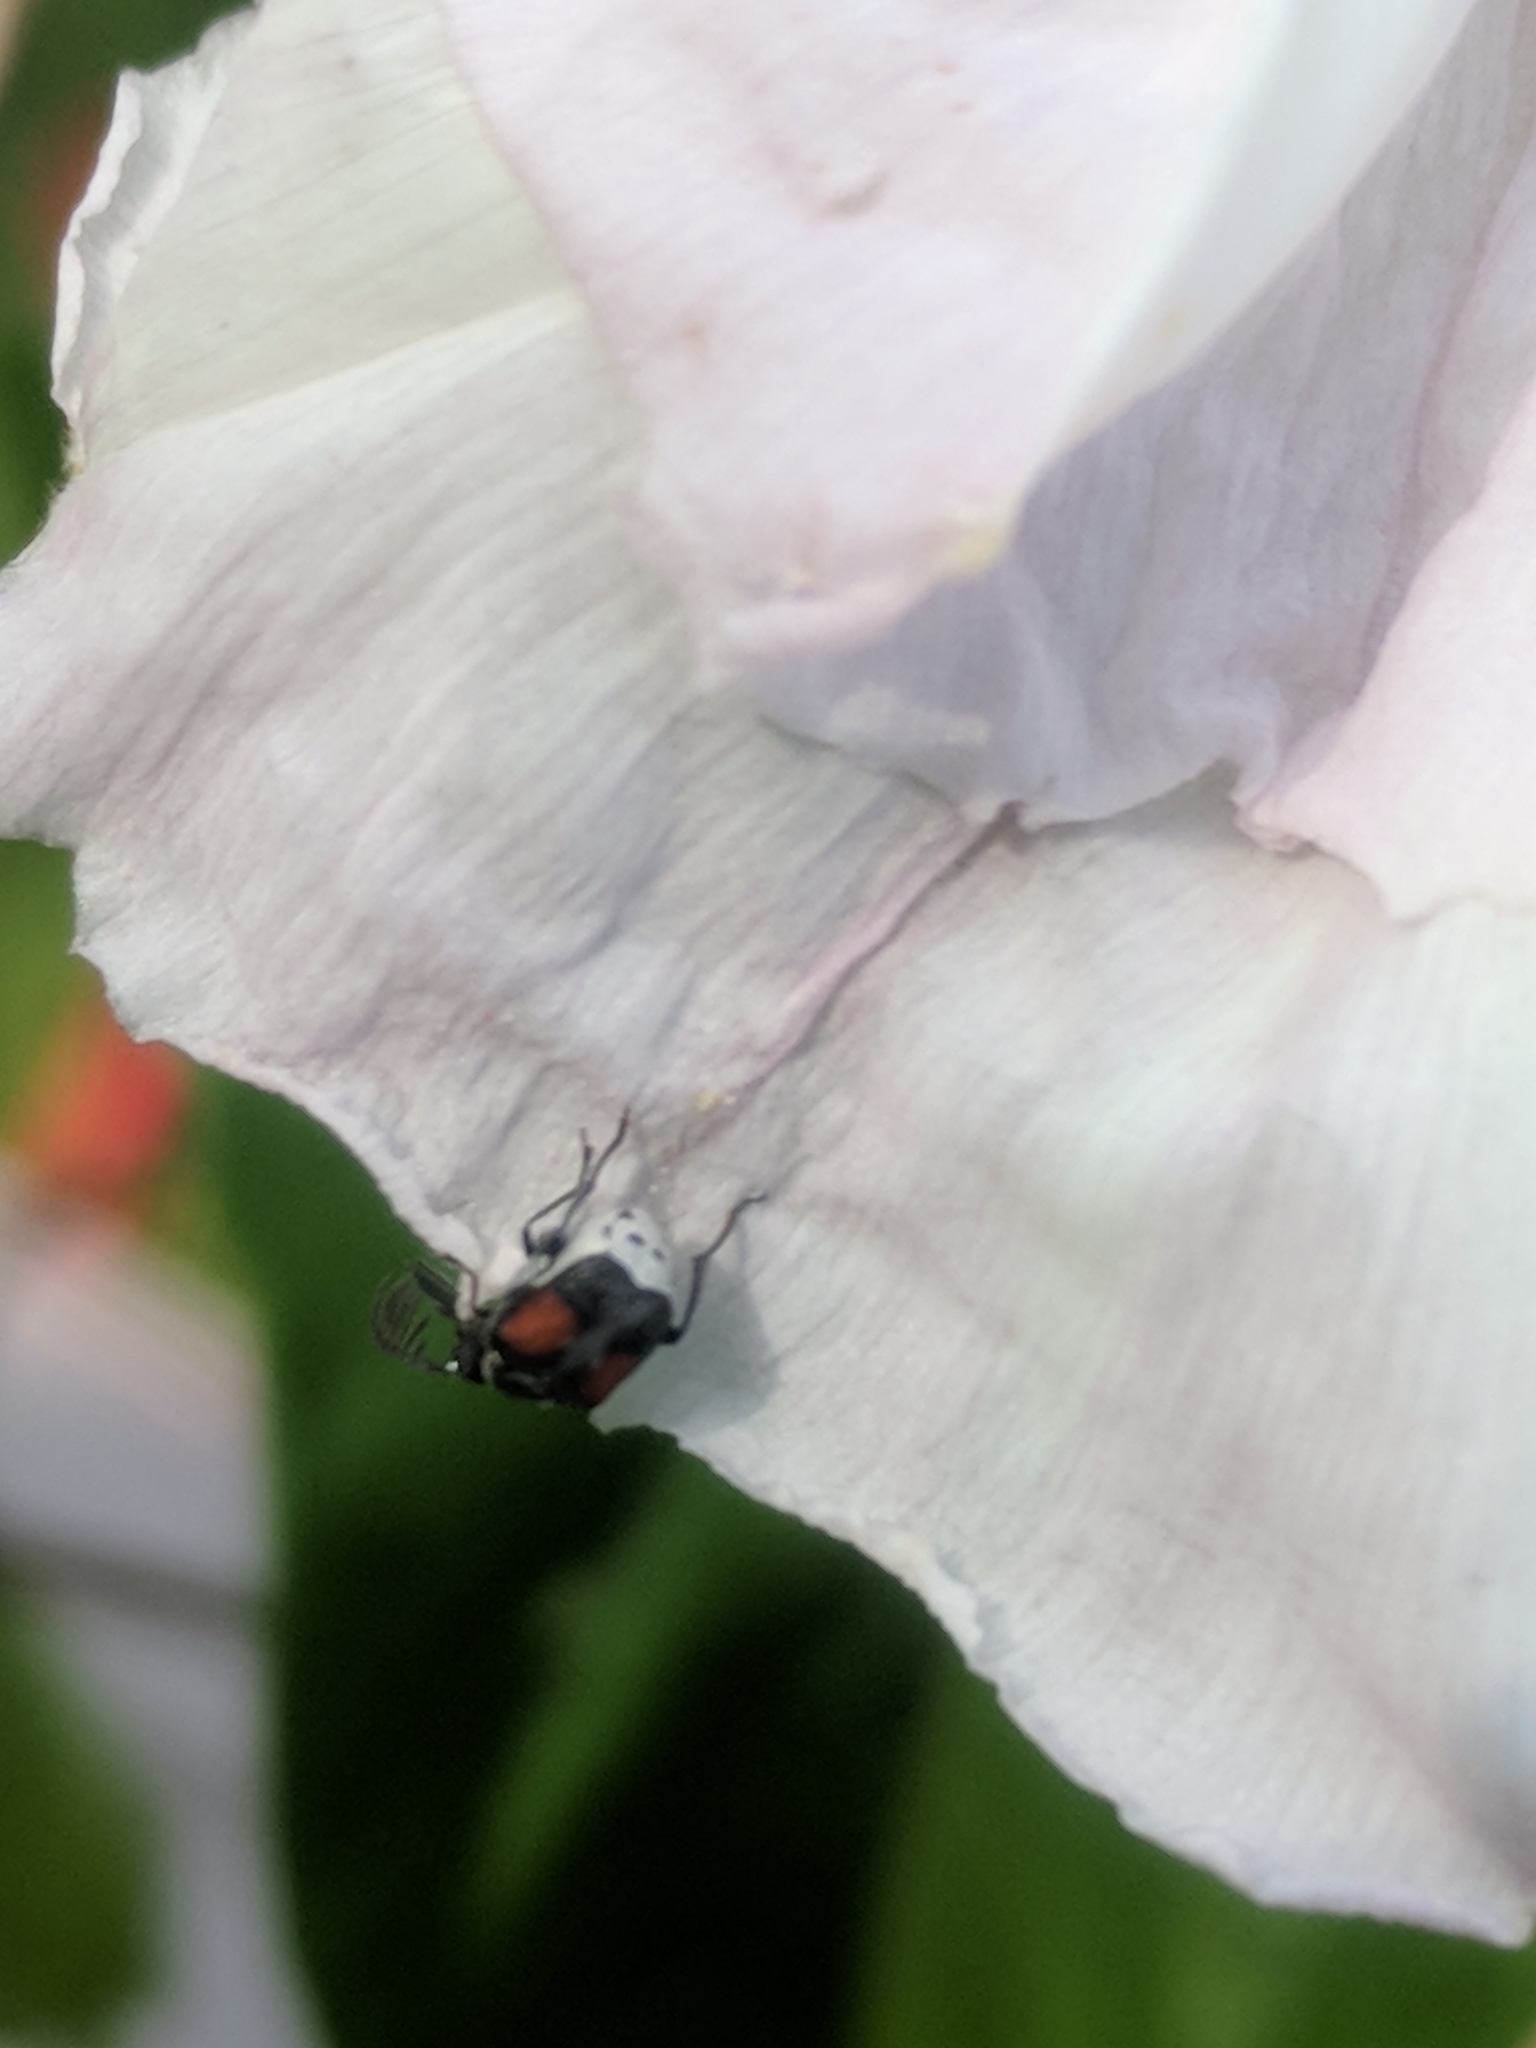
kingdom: Animalia
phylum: Arthropoda
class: Insecta
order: Coleoptera
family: Chrysomelidae
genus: Megacerus
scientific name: Megacerus discoidus
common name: Red megacerus
